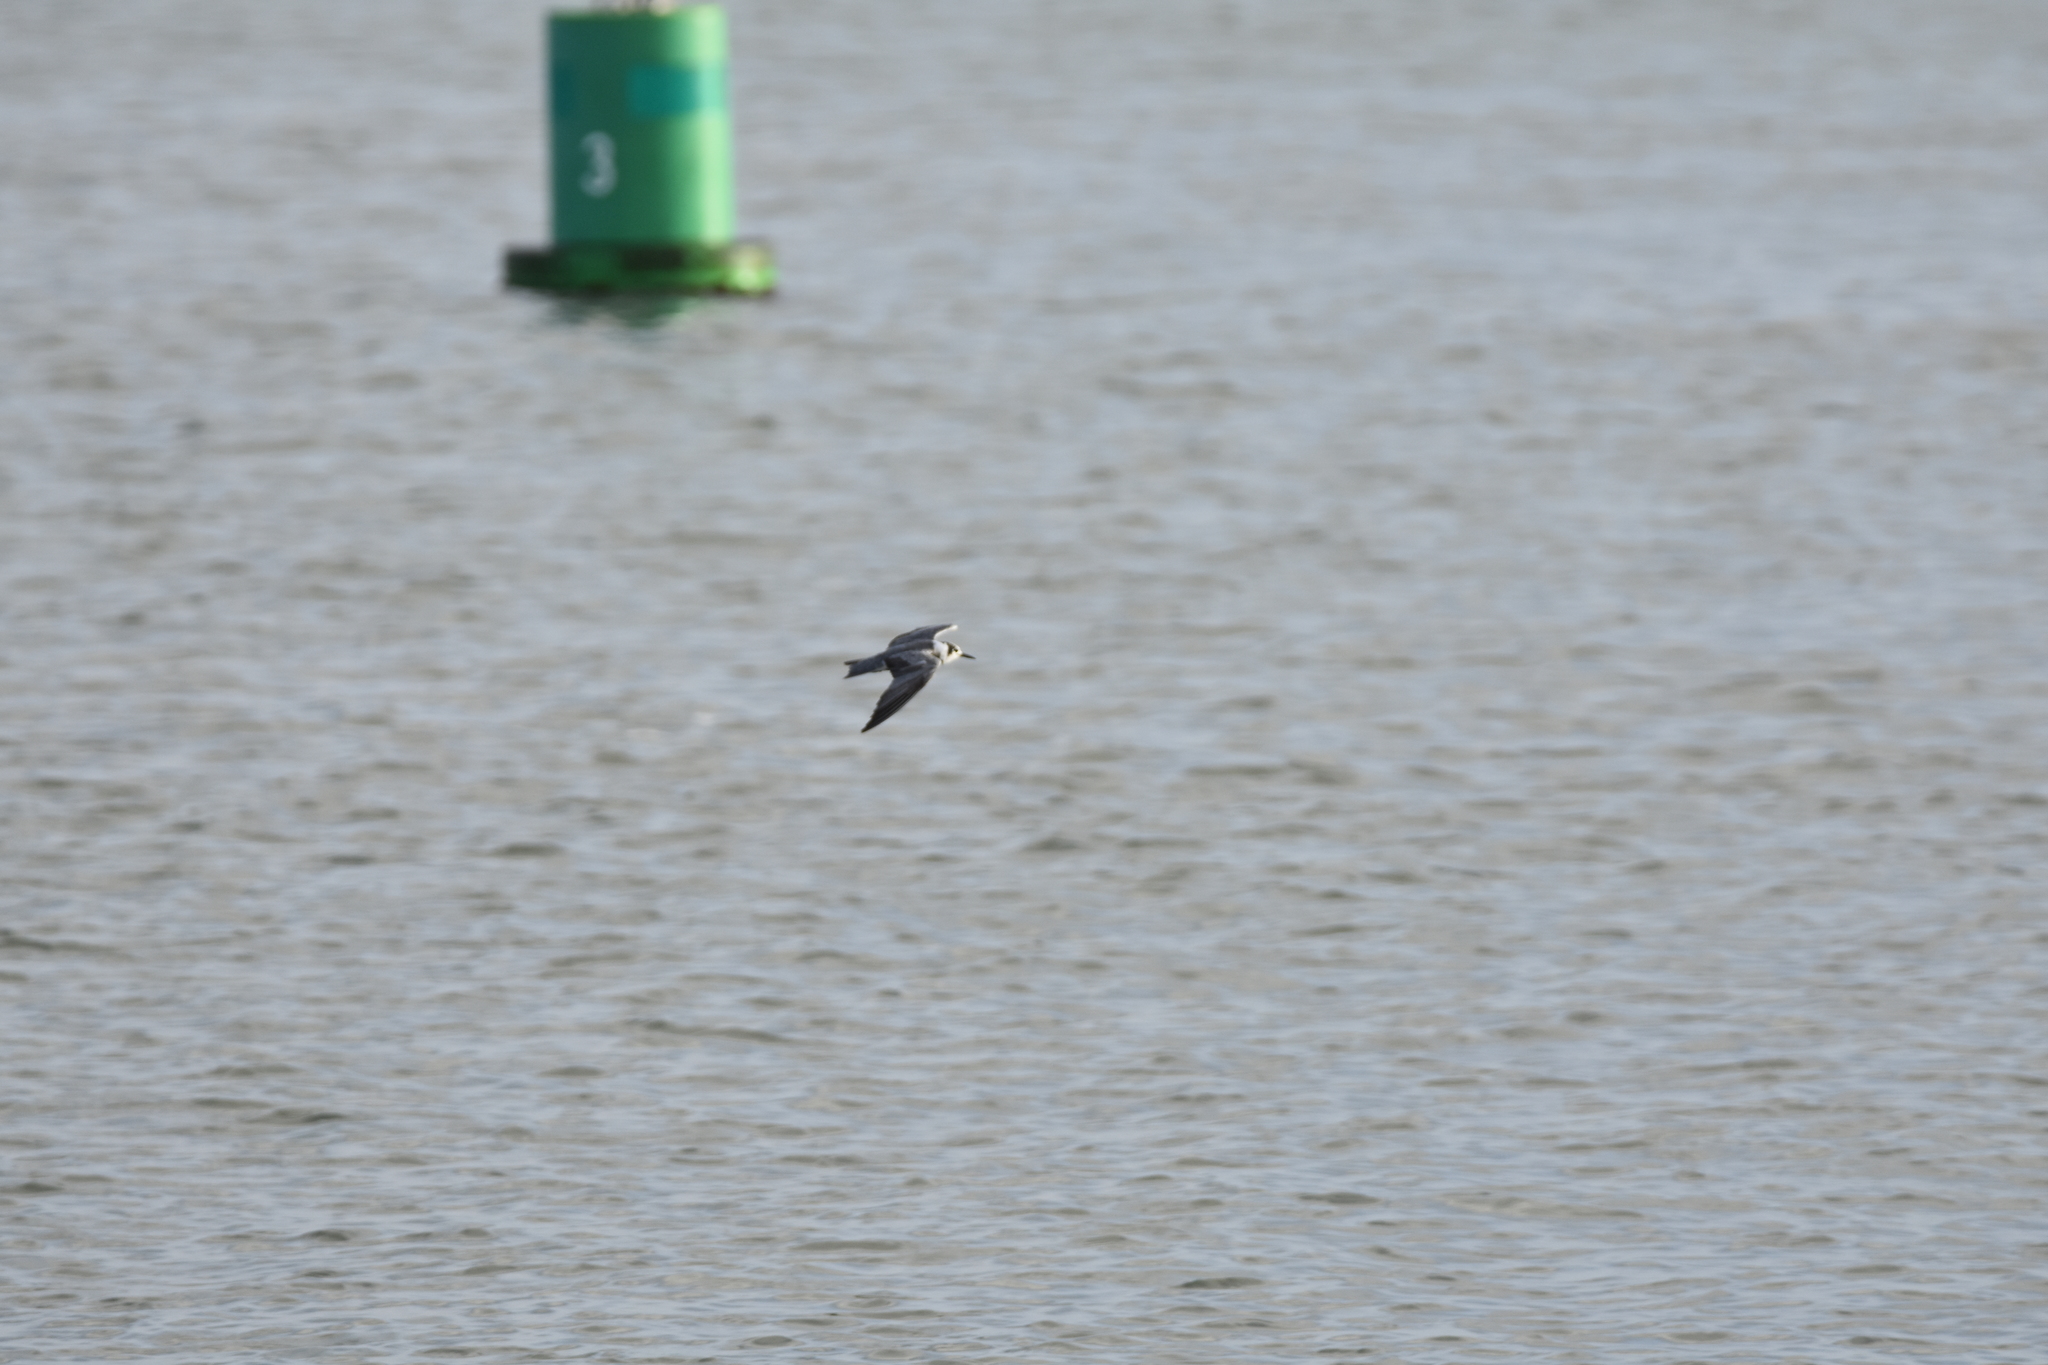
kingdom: Animalia
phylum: Chordata
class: Aves
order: Charadriiformes
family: Laridae
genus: Chlidonias
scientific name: Chlidonias niger
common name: Black tern
